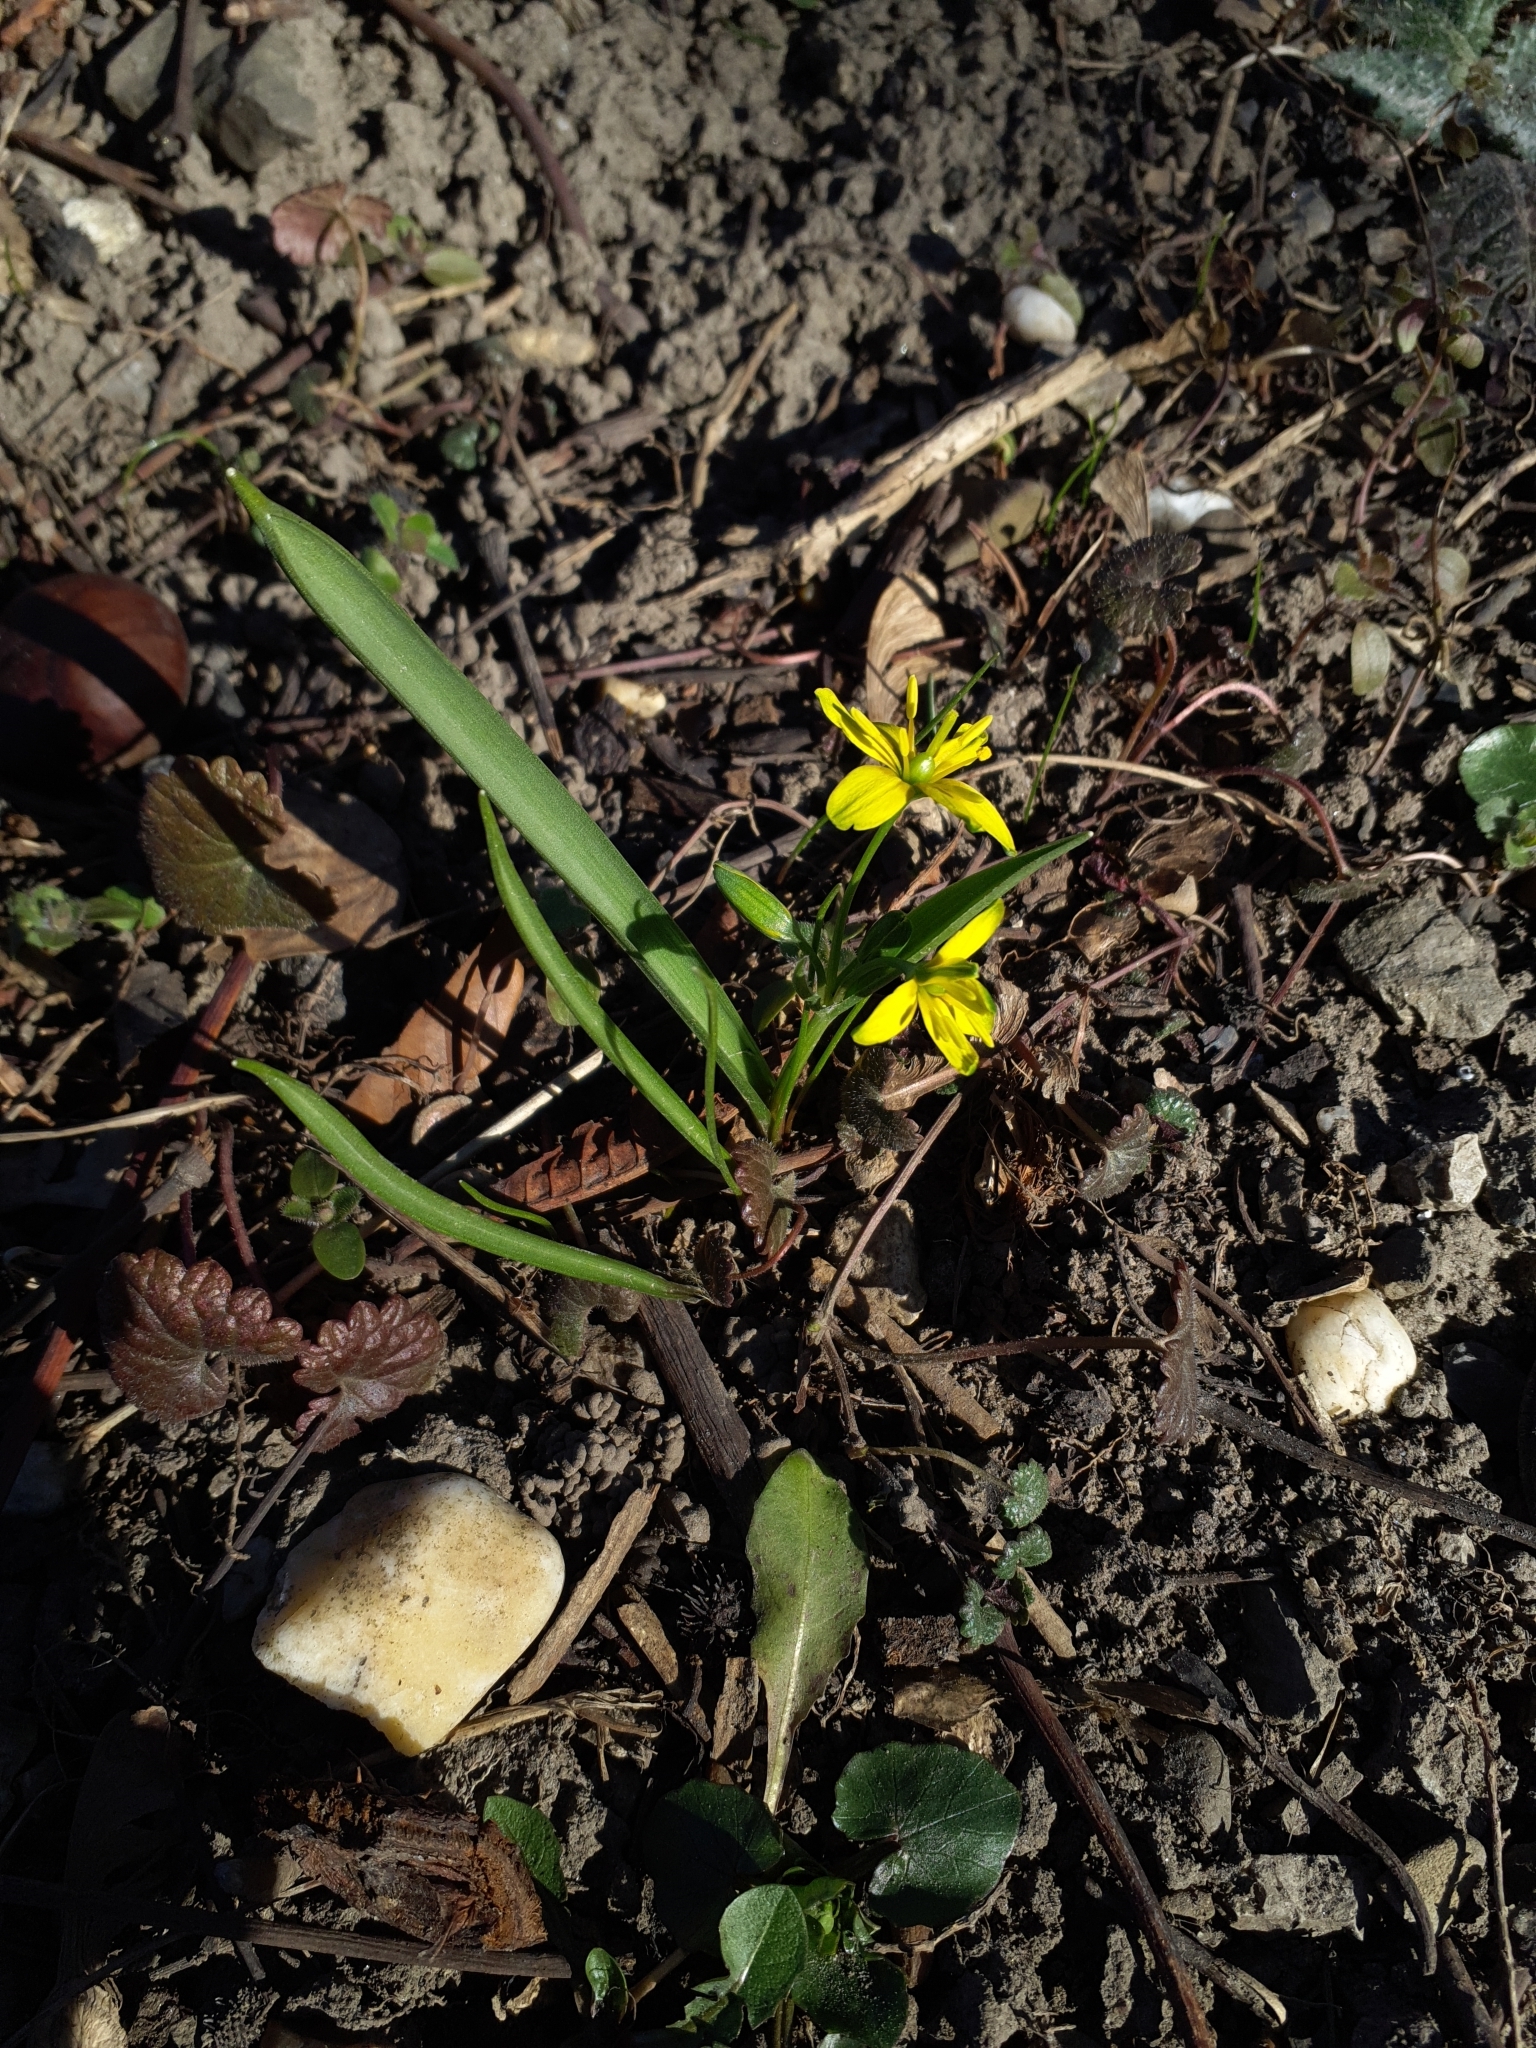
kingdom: Plantae
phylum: Tracheophyta
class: Liliopsida
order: Liliales
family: Liliaceae
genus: Gagea
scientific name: Gagea lutea
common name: Yellow star-of-bethlehem
